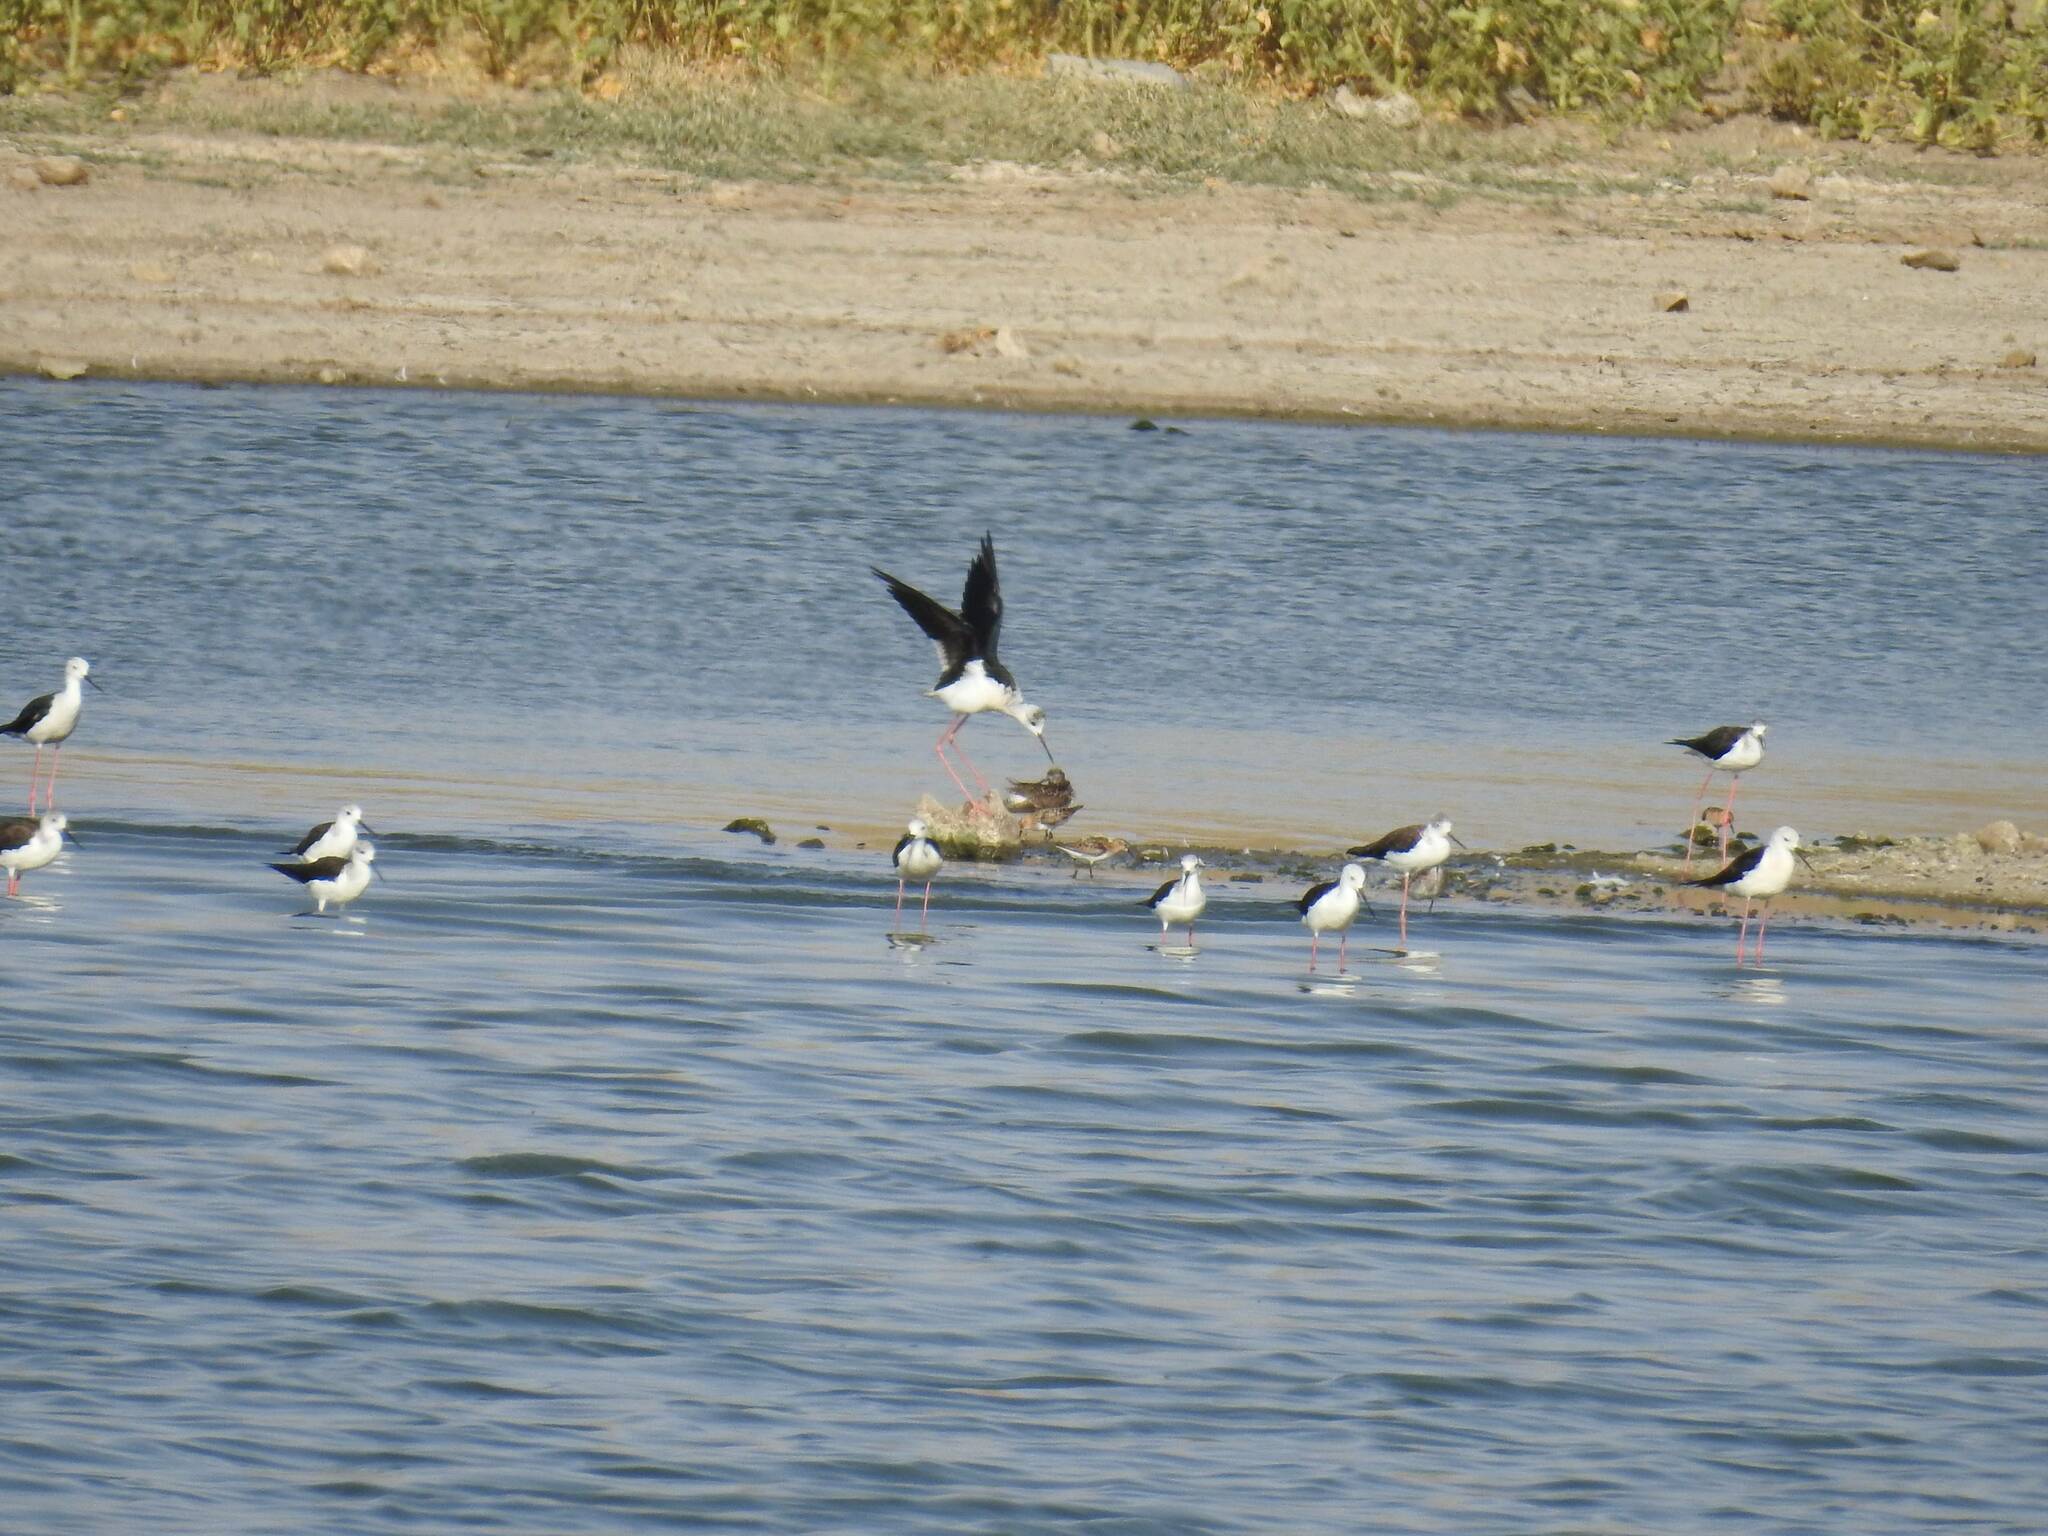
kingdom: Animalia
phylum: Chordata
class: Aves
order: Charadriiformes
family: Recurvirostridae
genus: Himantopus
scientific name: Himantopus himantopus
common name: Black-winged stilt
